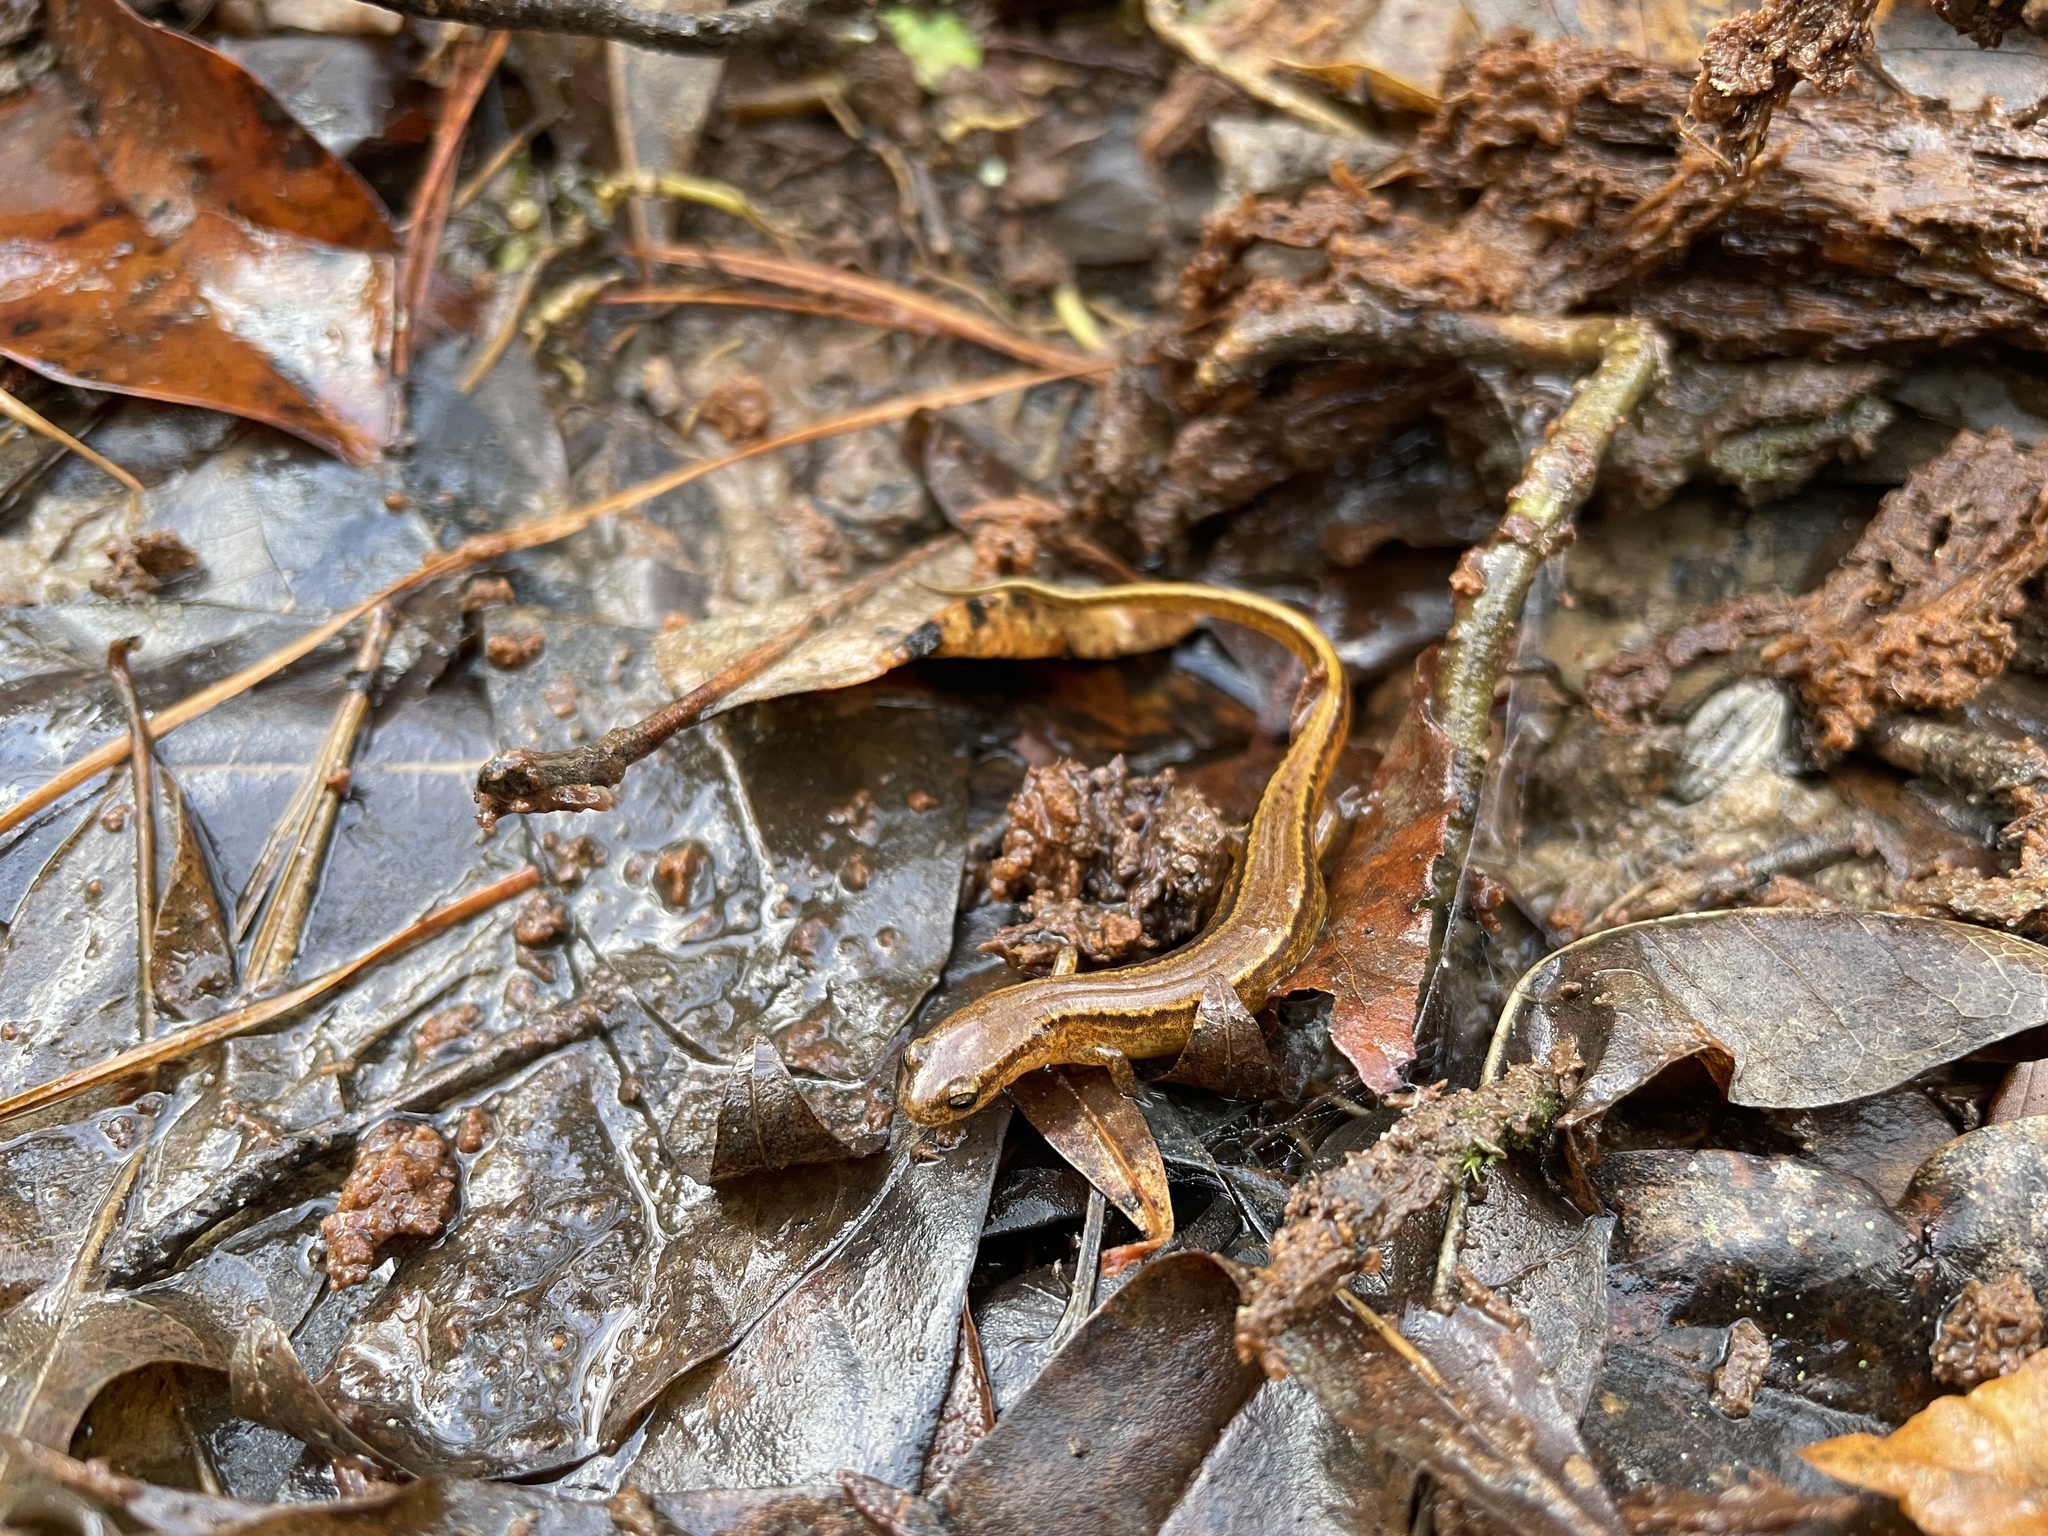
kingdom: Animalia
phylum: Chordata
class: Amphibia
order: Caudata
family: Plethodontidae
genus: Eurycea
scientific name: Eurycea cirrigera
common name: Southern two-lined salamander
